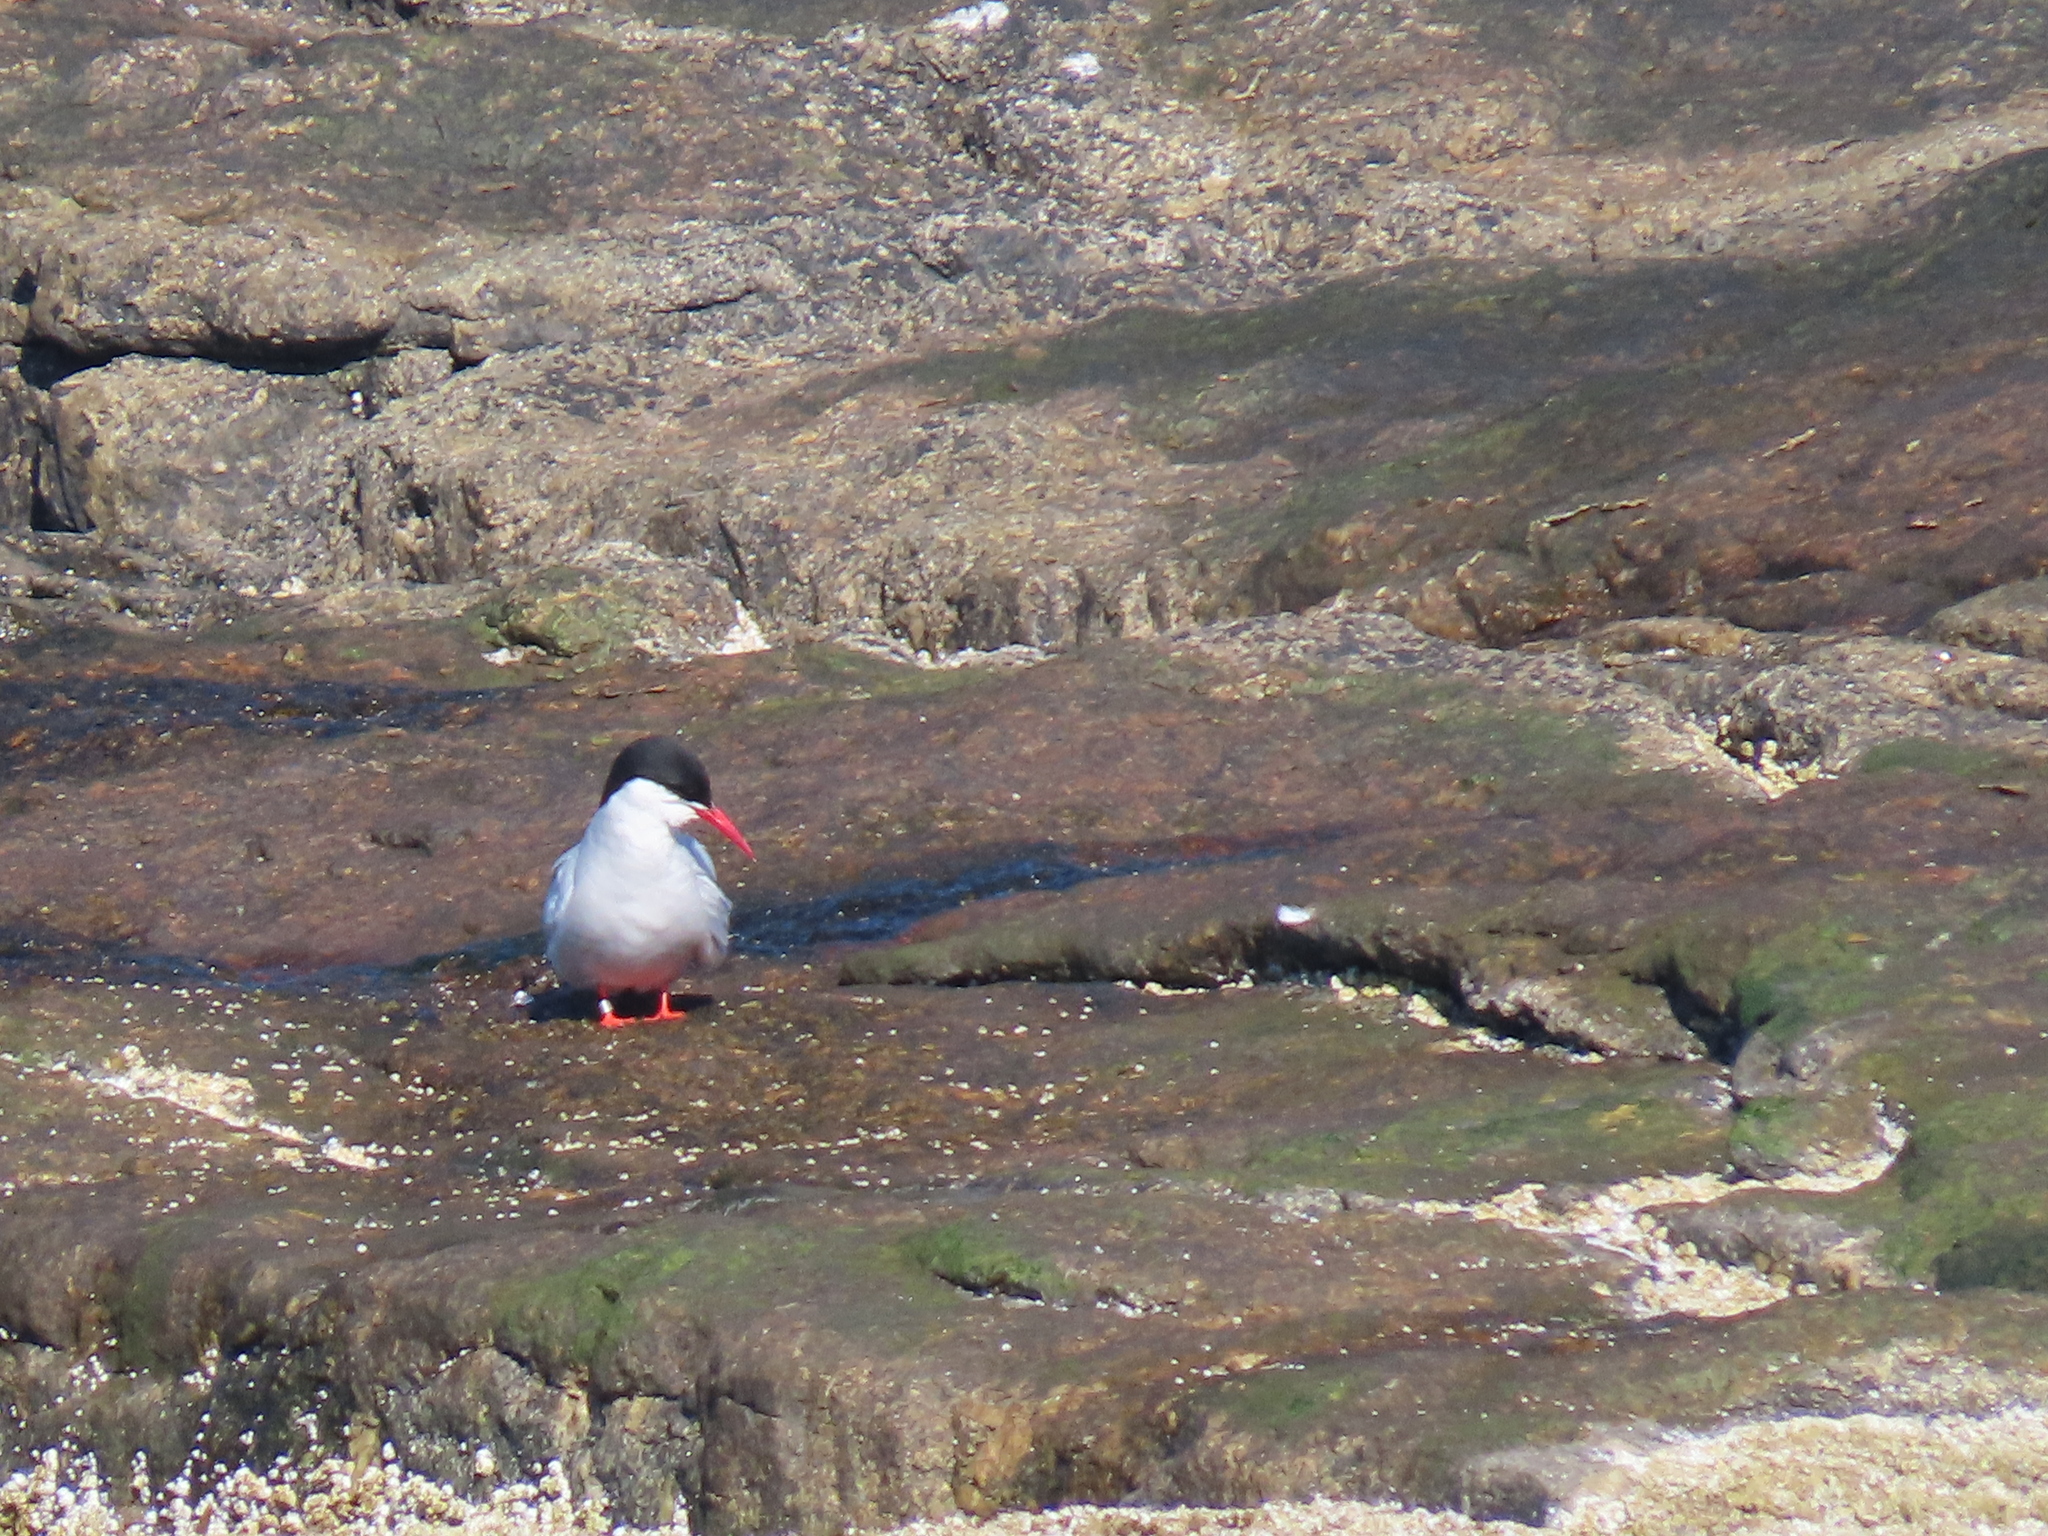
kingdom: Animalia
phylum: Chordata
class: Aves
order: Charadriiformes
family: Laridae
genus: Sterna
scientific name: Sterna paradisaea
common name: Arctic tern
